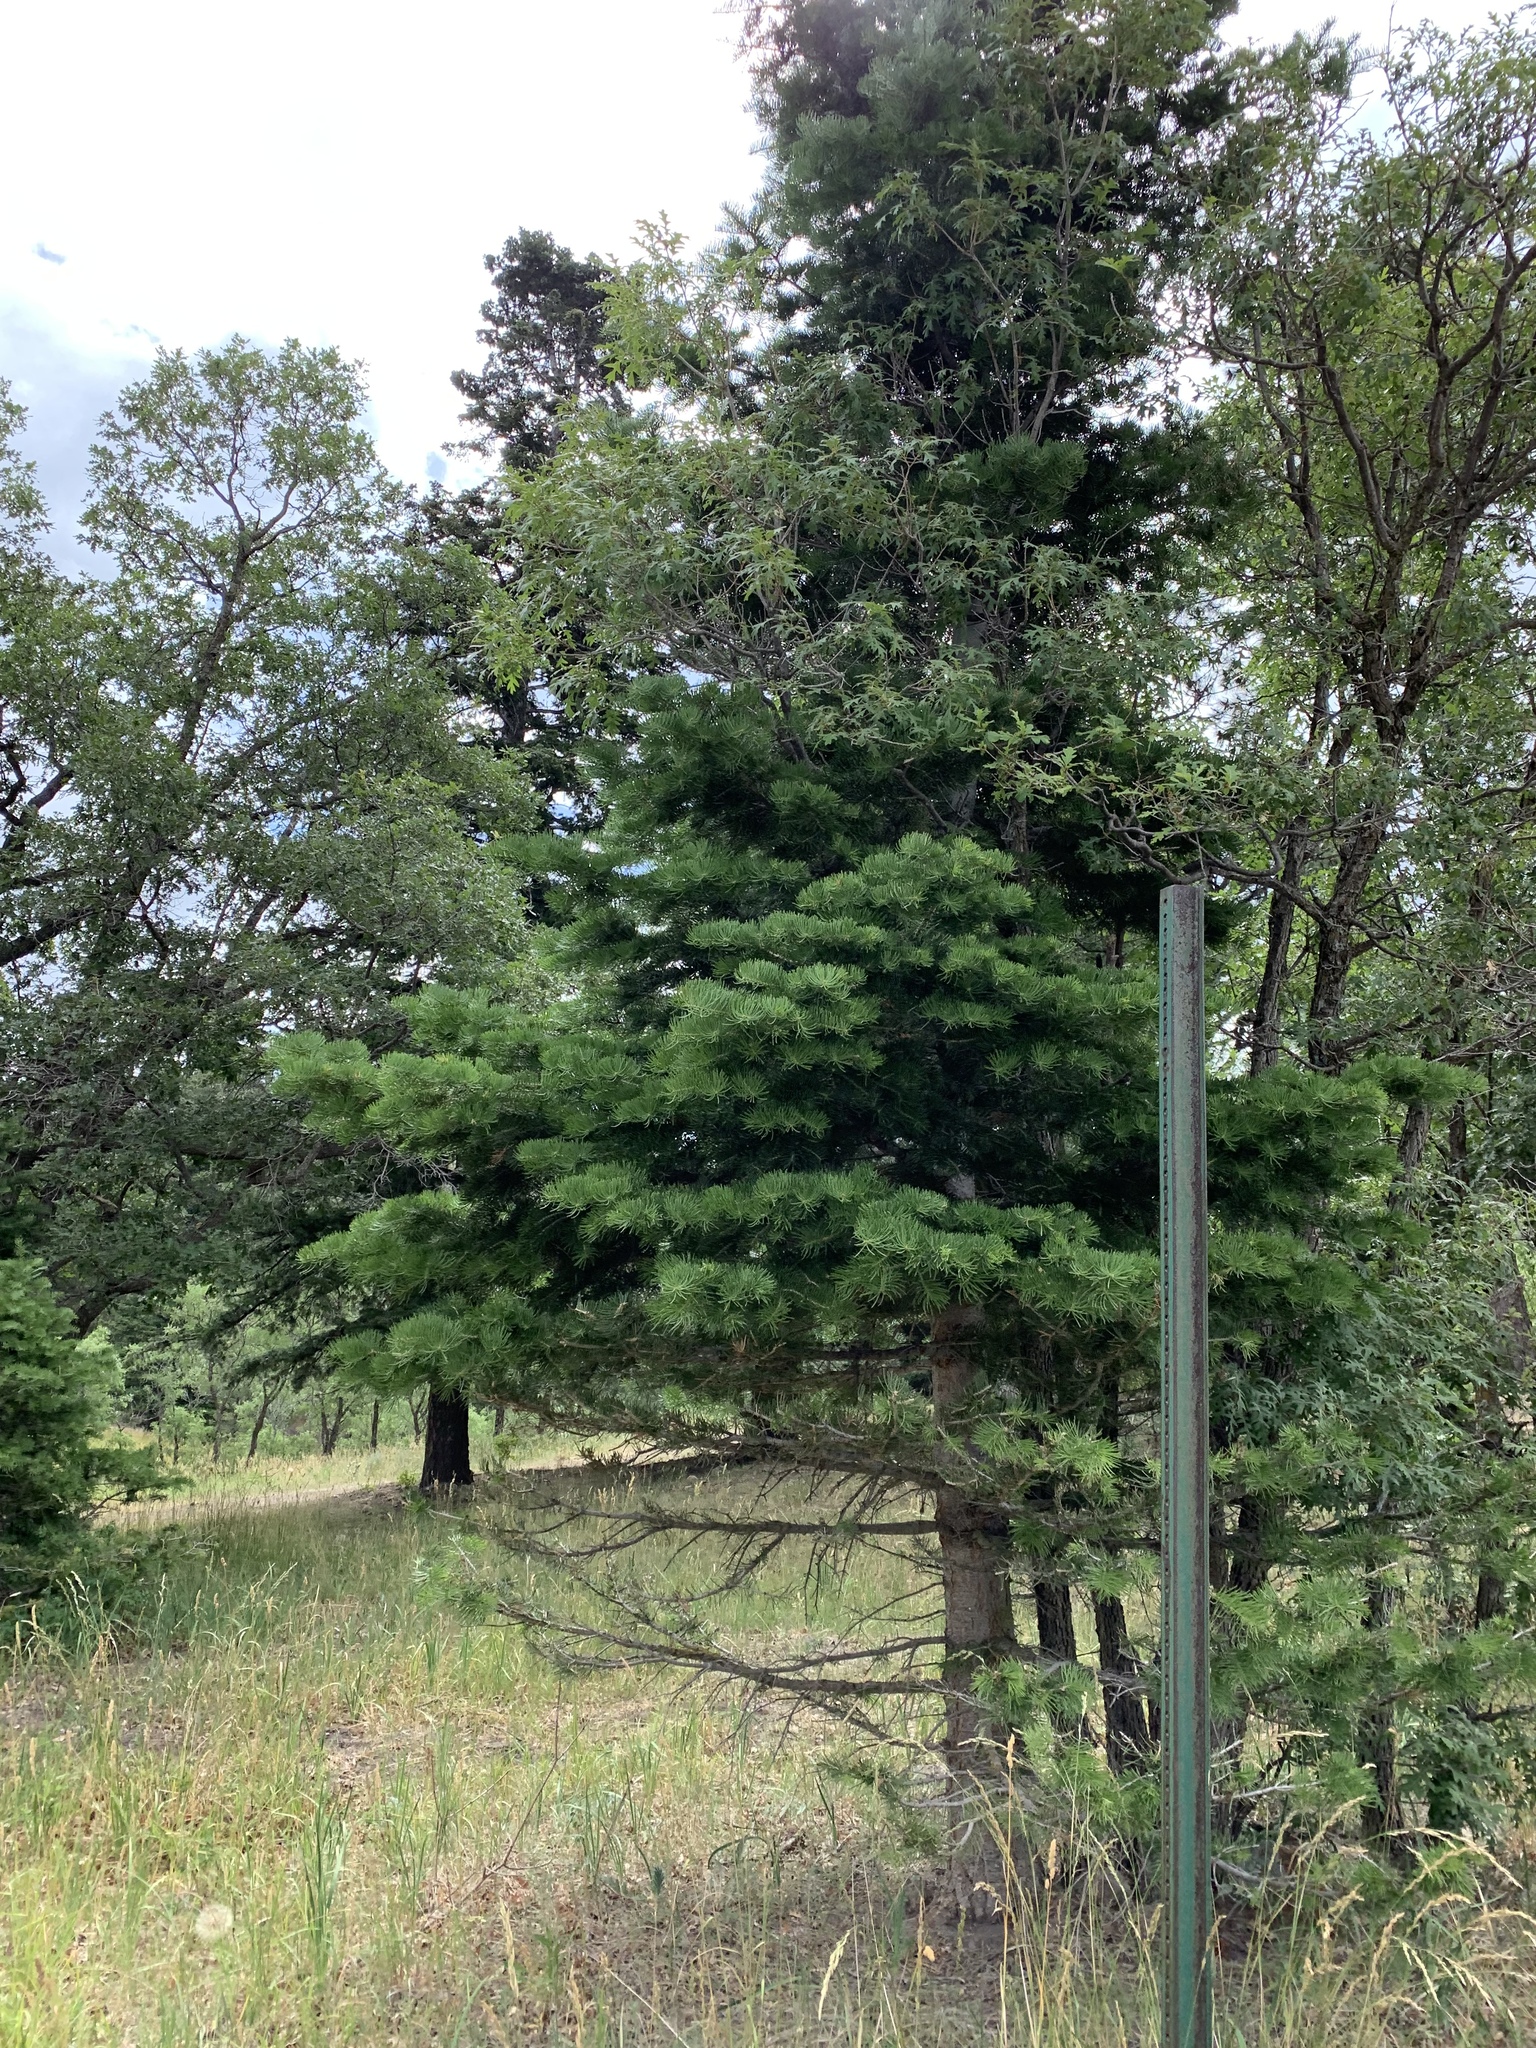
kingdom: Plantae
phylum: Tracheophyta
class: Pinopsida
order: Pinales
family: Pinaceae
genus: Abies
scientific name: Abies concolor
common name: Colorado fir
